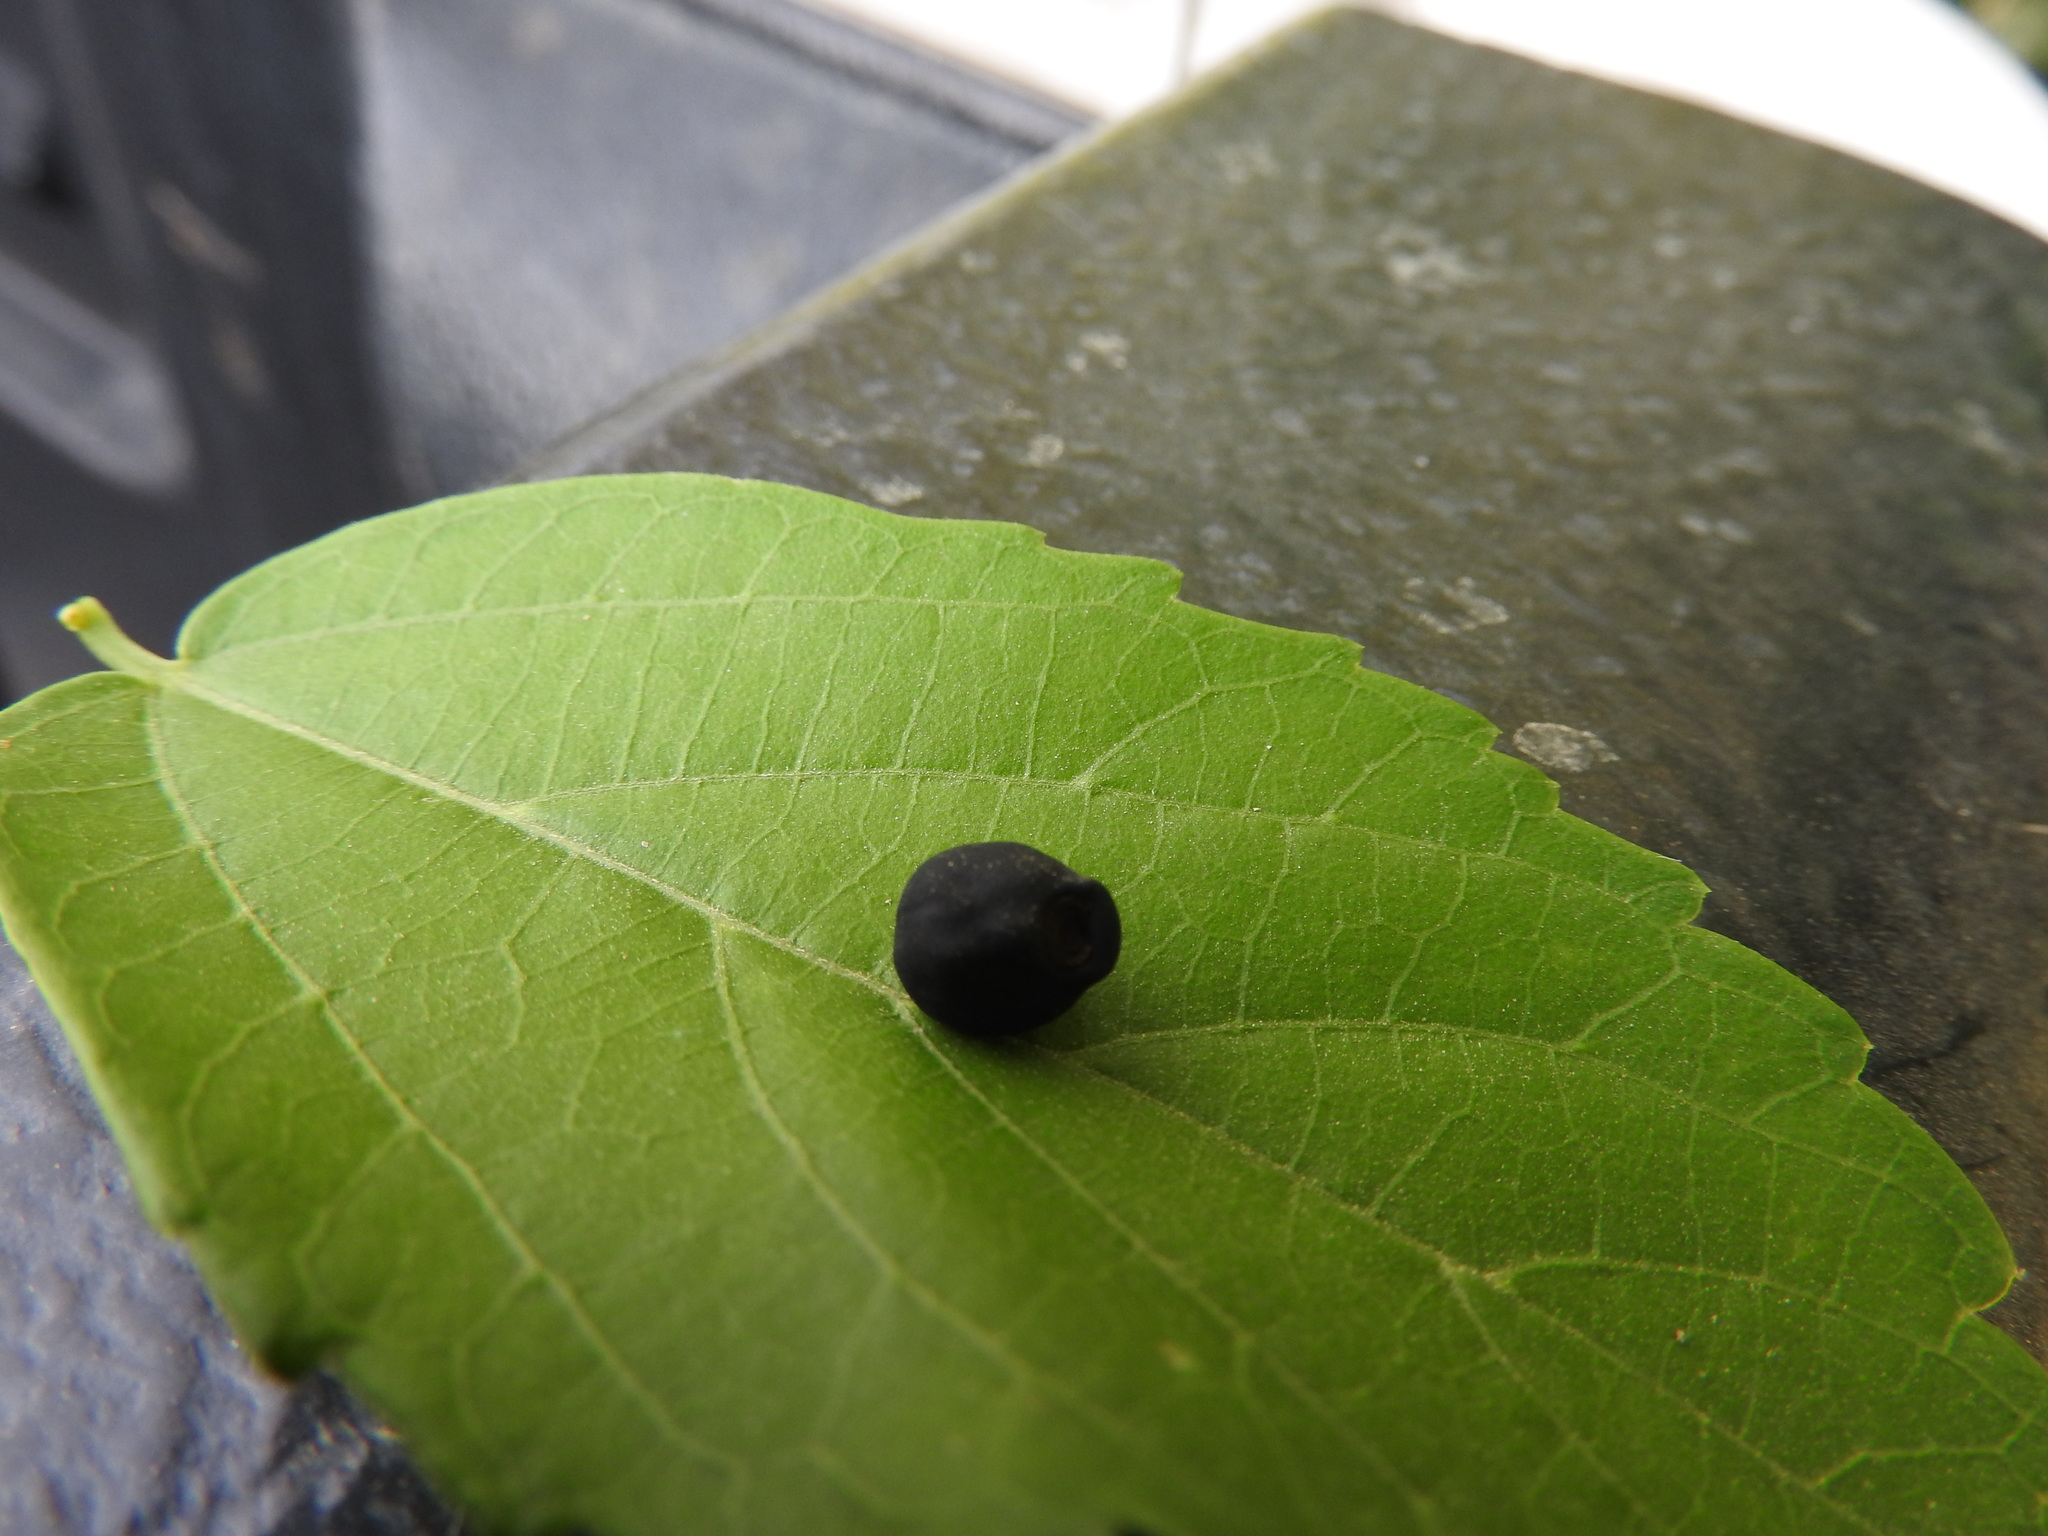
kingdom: Plantae
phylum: Tracheophyta
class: Magnoliopsida
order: Solanales
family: Convolvulaceae
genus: Operculina
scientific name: Operculina pteripes
